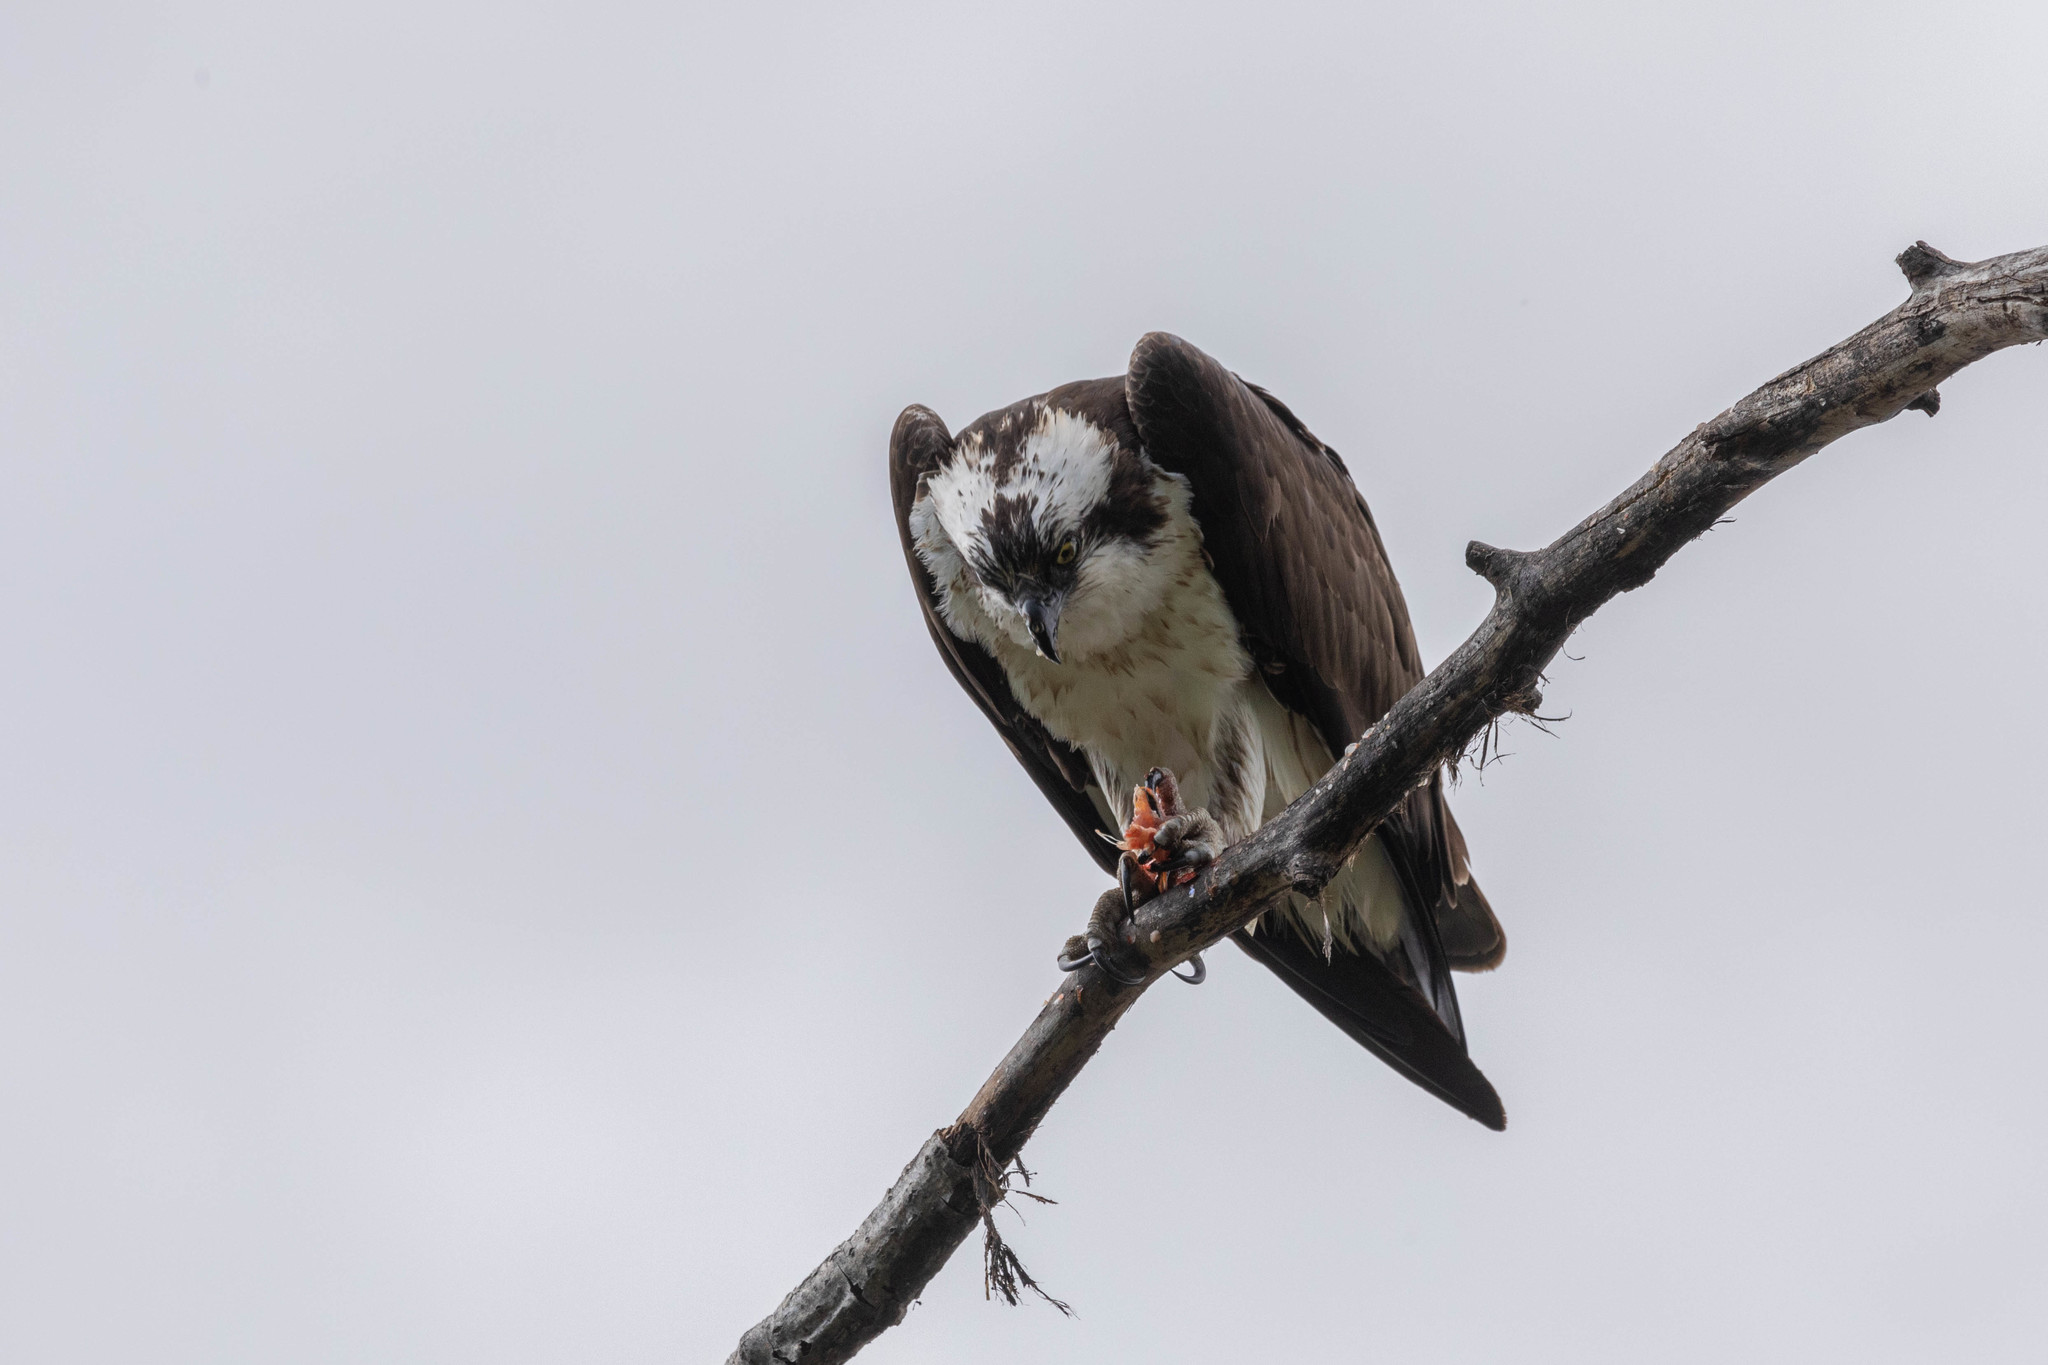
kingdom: Animalia
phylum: Chordata
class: Aves
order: Accipitriformes
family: Pandionidae
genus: Pandion
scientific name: Pandion haliaetus
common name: Osprey
